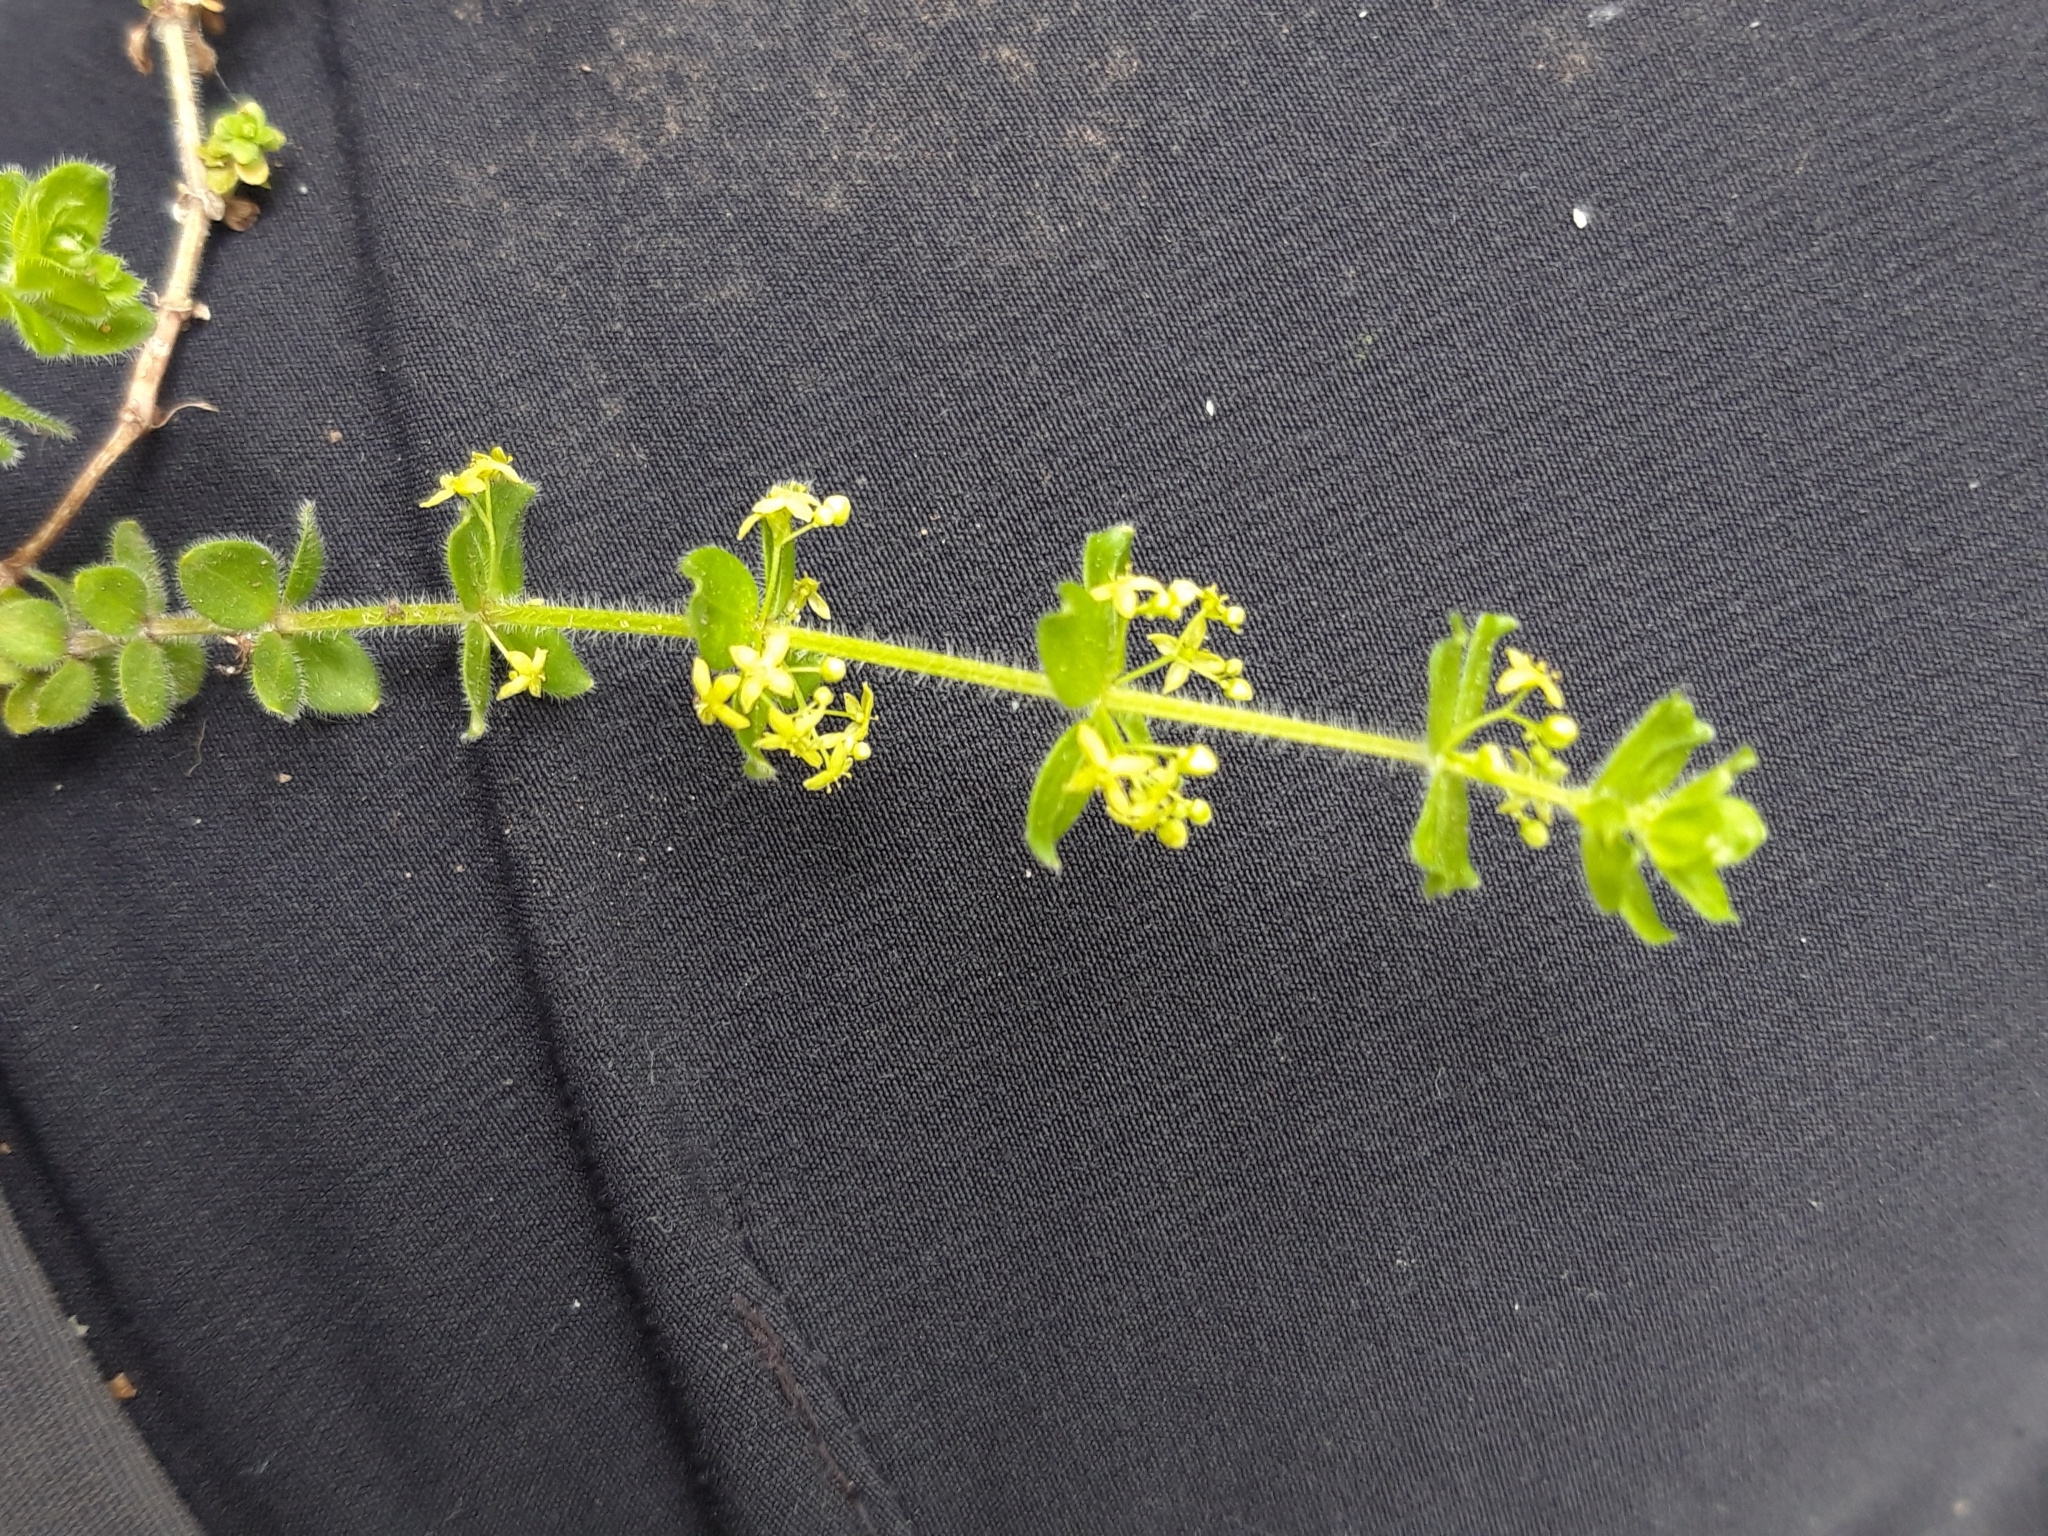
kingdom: Plantae
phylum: Tracheophyta
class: Magnoliopsida
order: Gentianales
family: Rubiaceae
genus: Cruciata
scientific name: Cruciata laevipes
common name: Crosswort
